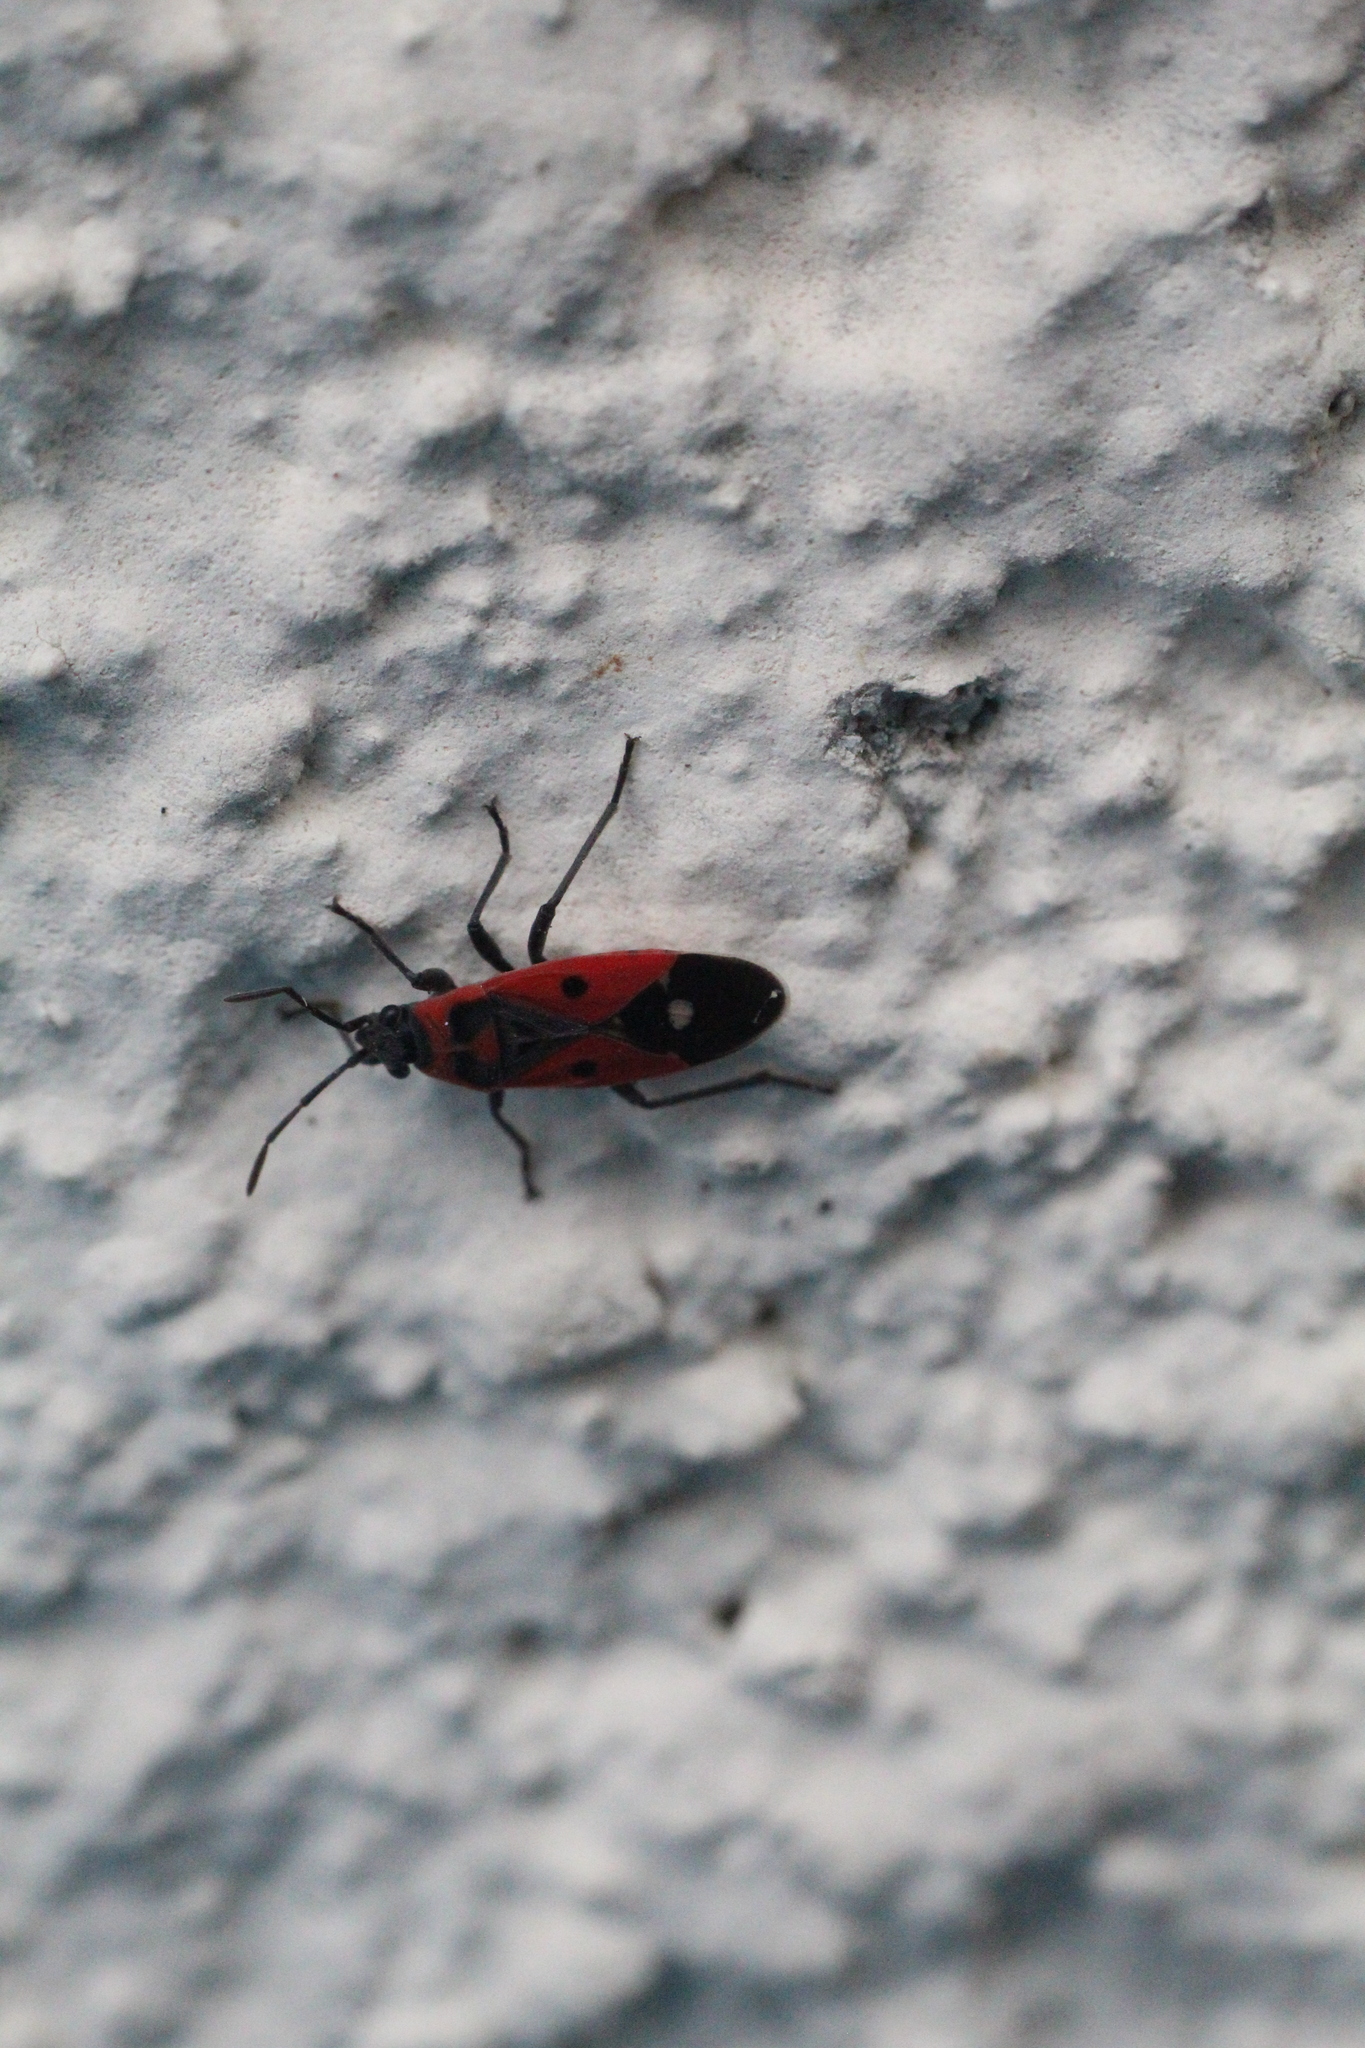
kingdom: Animalia
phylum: Arthropoda
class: Insecta
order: Hemiptera
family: Lygaeidae
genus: Melanocoryphus
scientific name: Melanocoryphus albomaculatus
